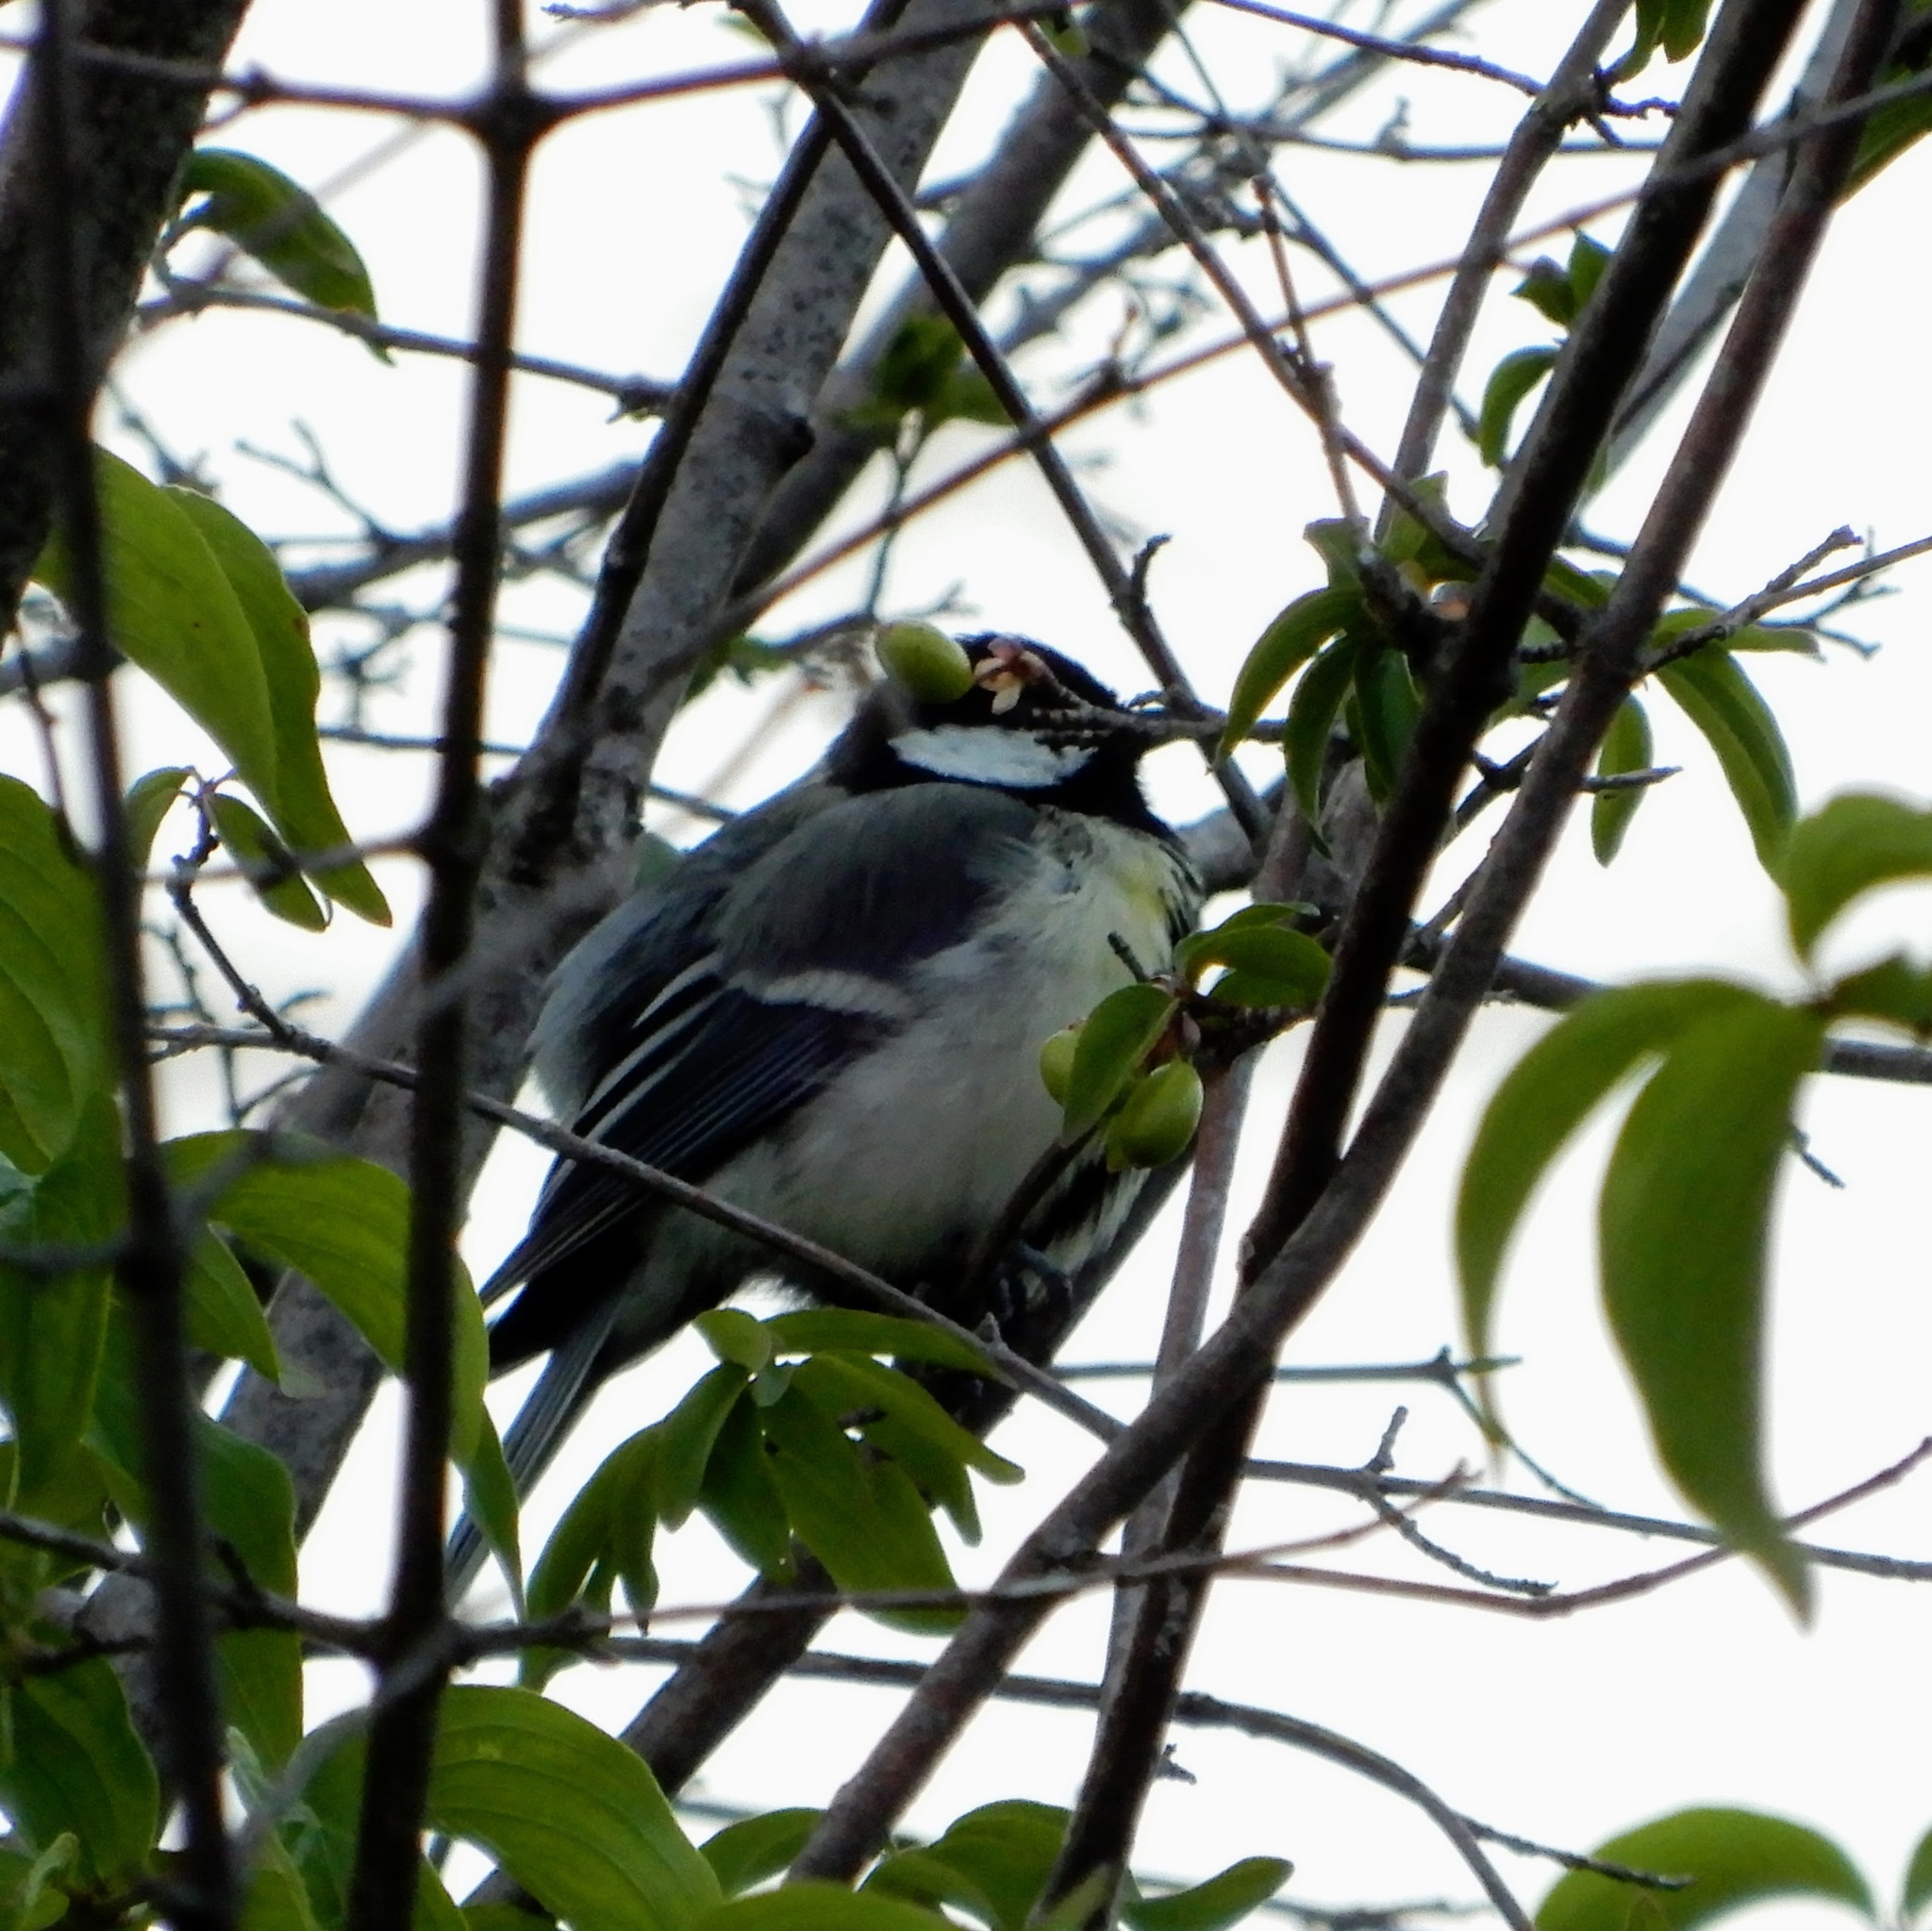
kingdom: Animalia
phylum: Chordata
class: Aves
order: Passeriformes
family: Paridae
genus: Parus
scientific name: Parus major
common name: Great tit
